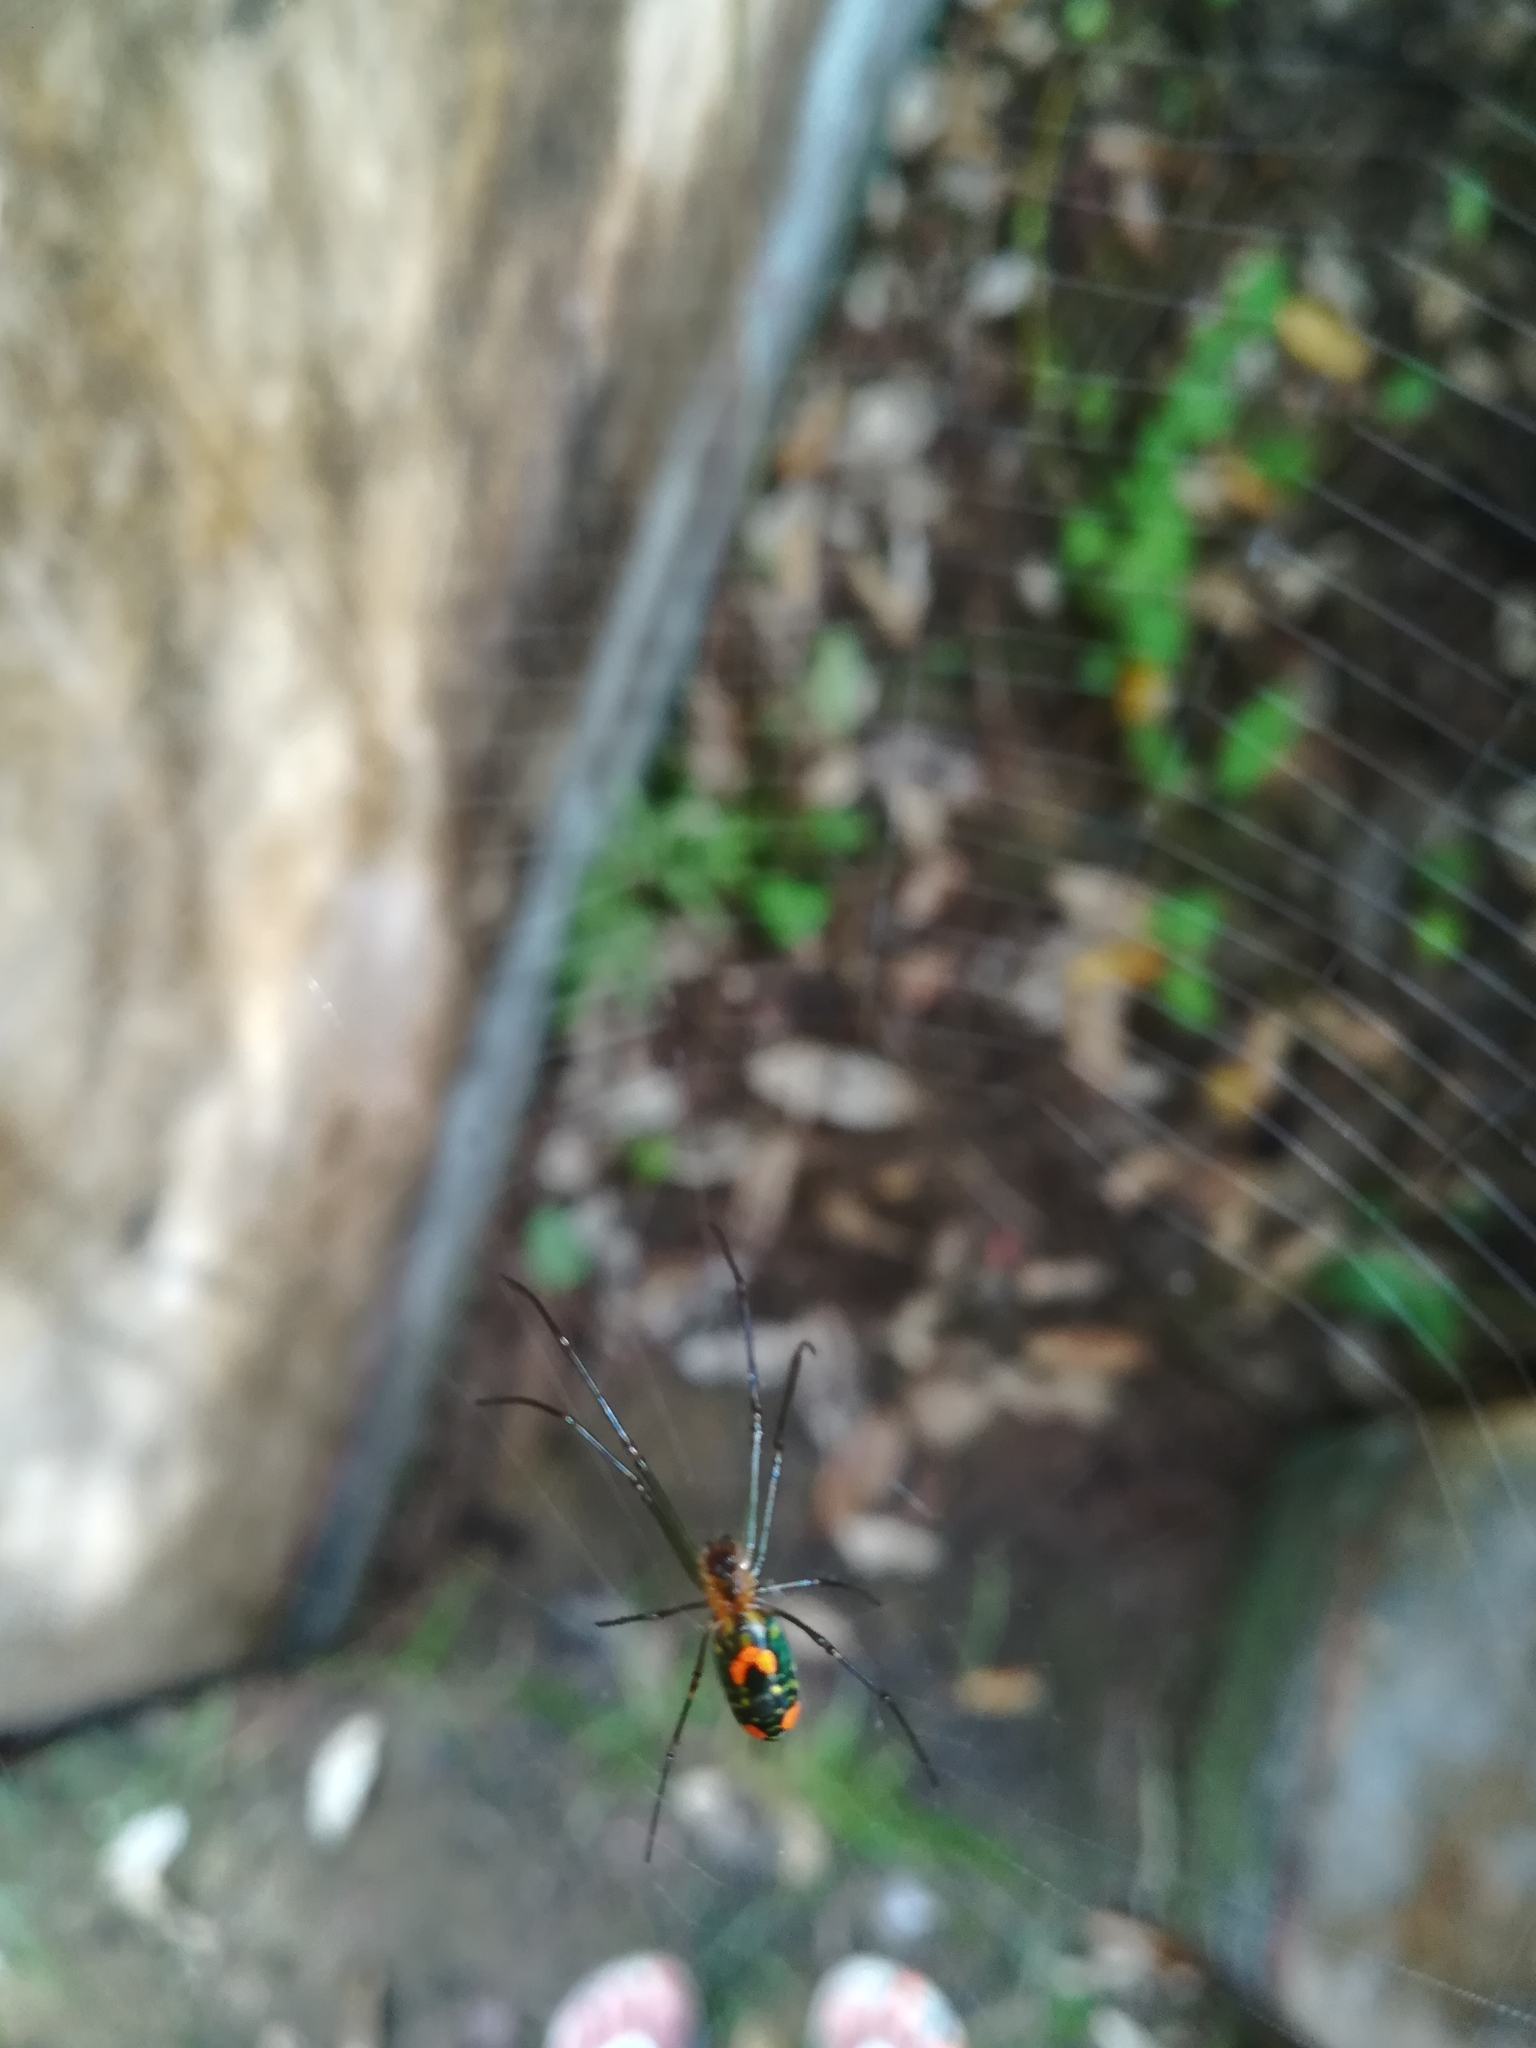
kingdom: Animalia
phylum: Arthropoda
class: Arachnida
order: Araneae
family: Tetragnathidae
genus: Leucauge
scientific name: Leucauge argyrobapta
